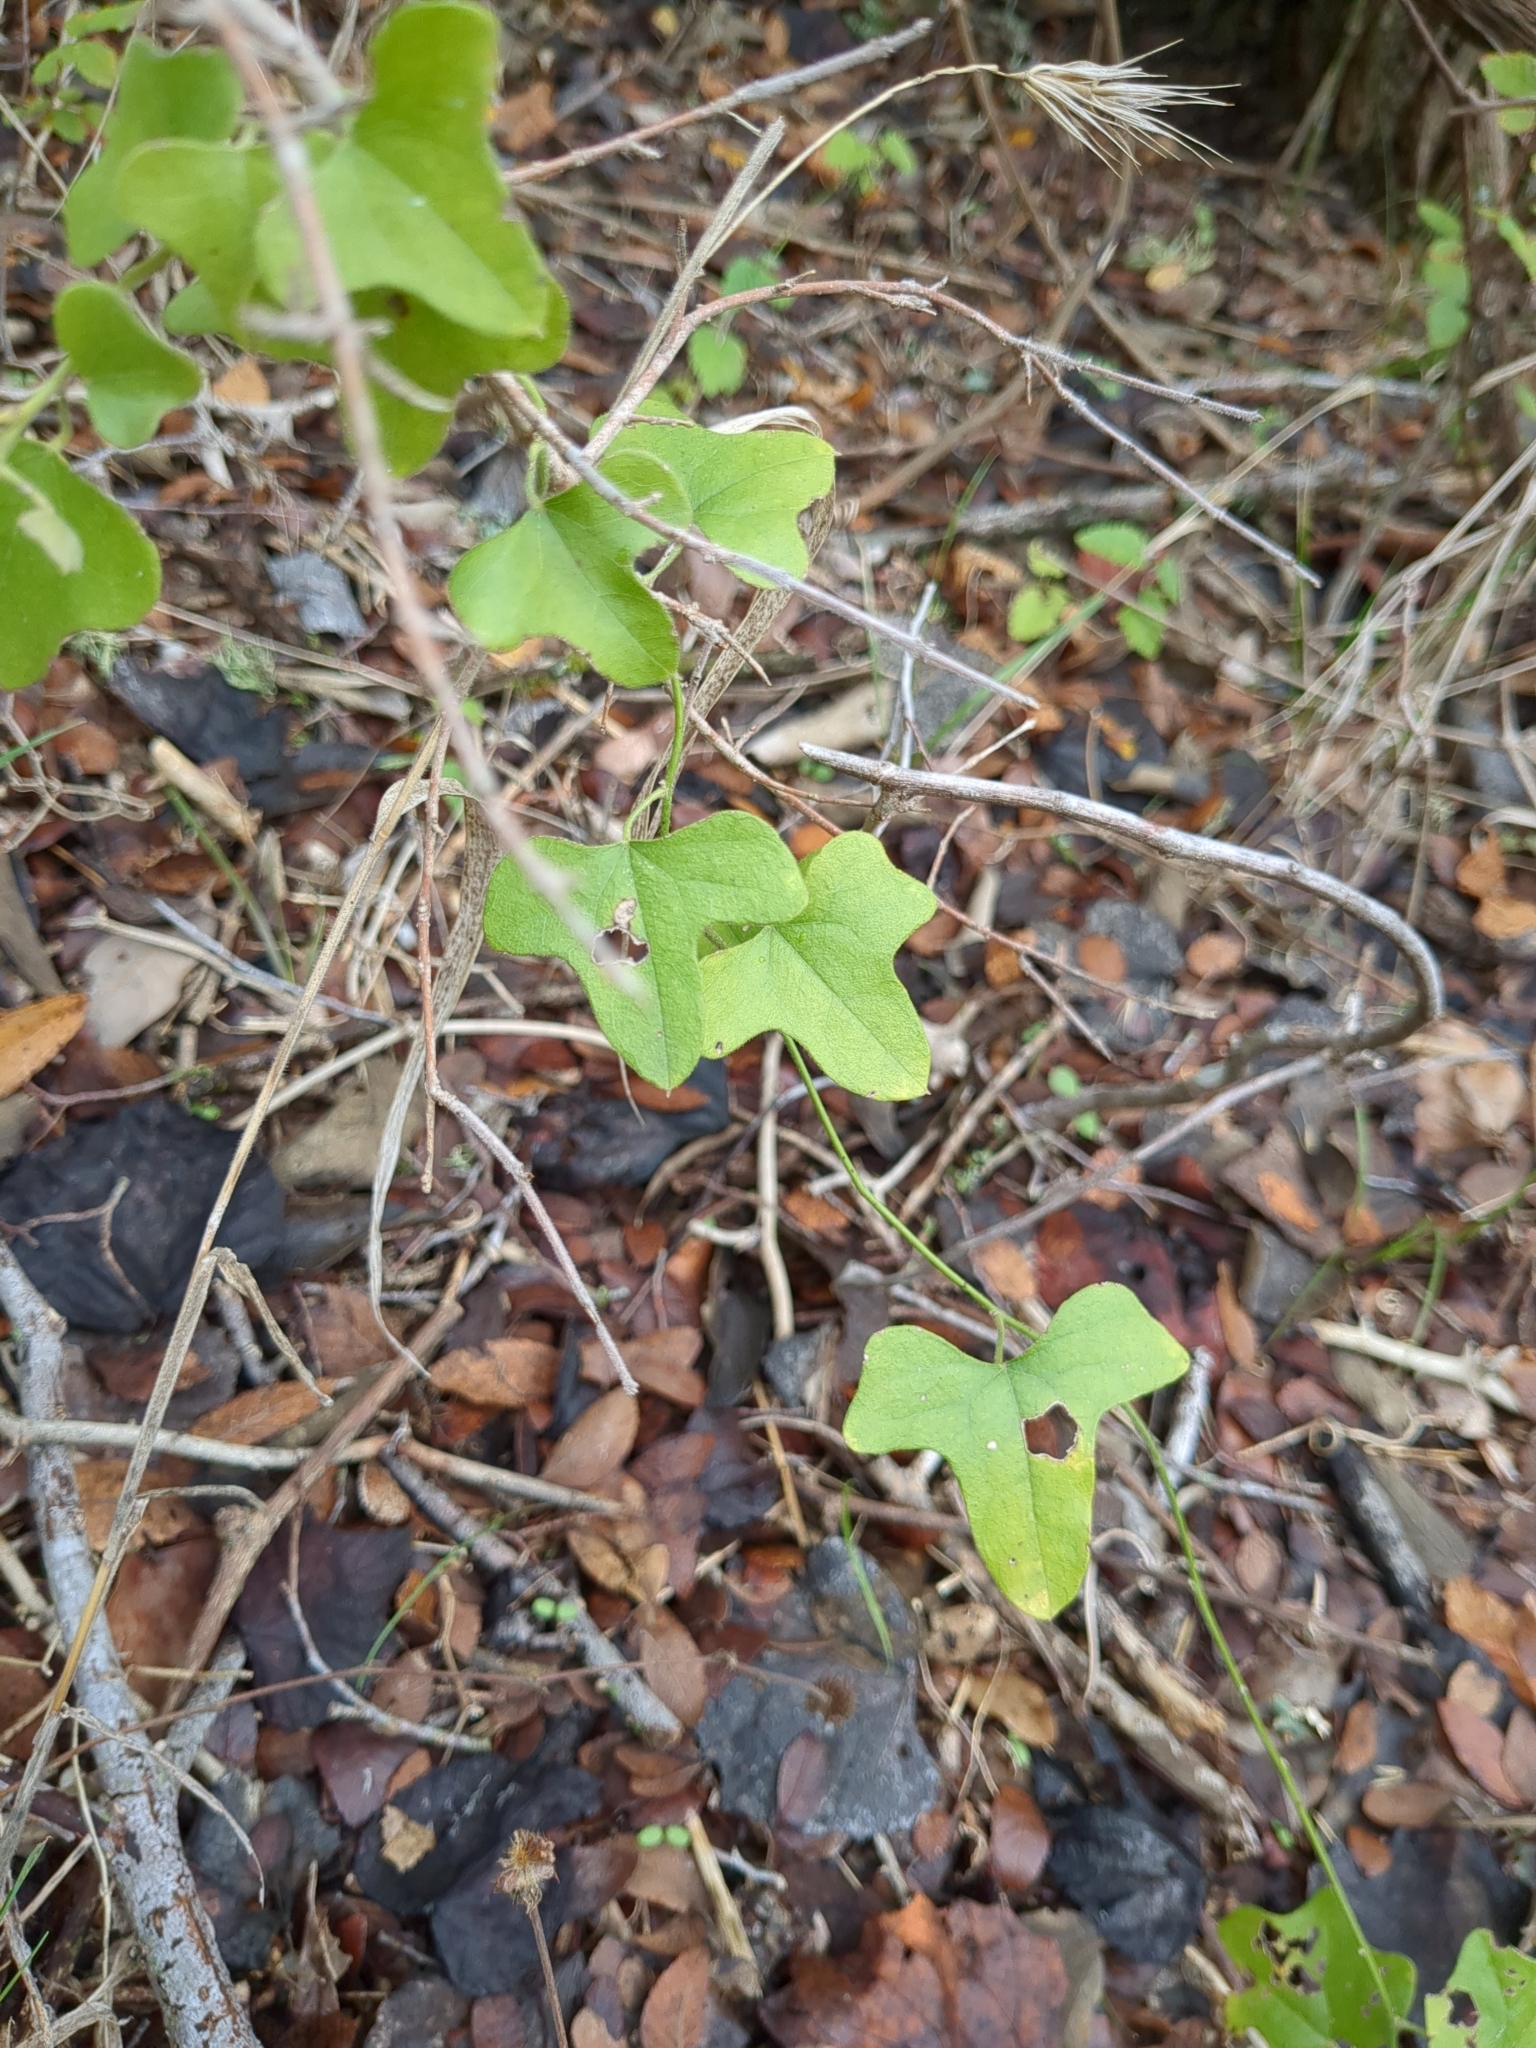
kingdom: Plantae
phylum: Tracheophyta
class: Magnoliopsida
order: Ranunculales
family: Menispermaceae
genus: Cocculus
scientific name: Cocculus carolinus
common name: Carolina moonseed
